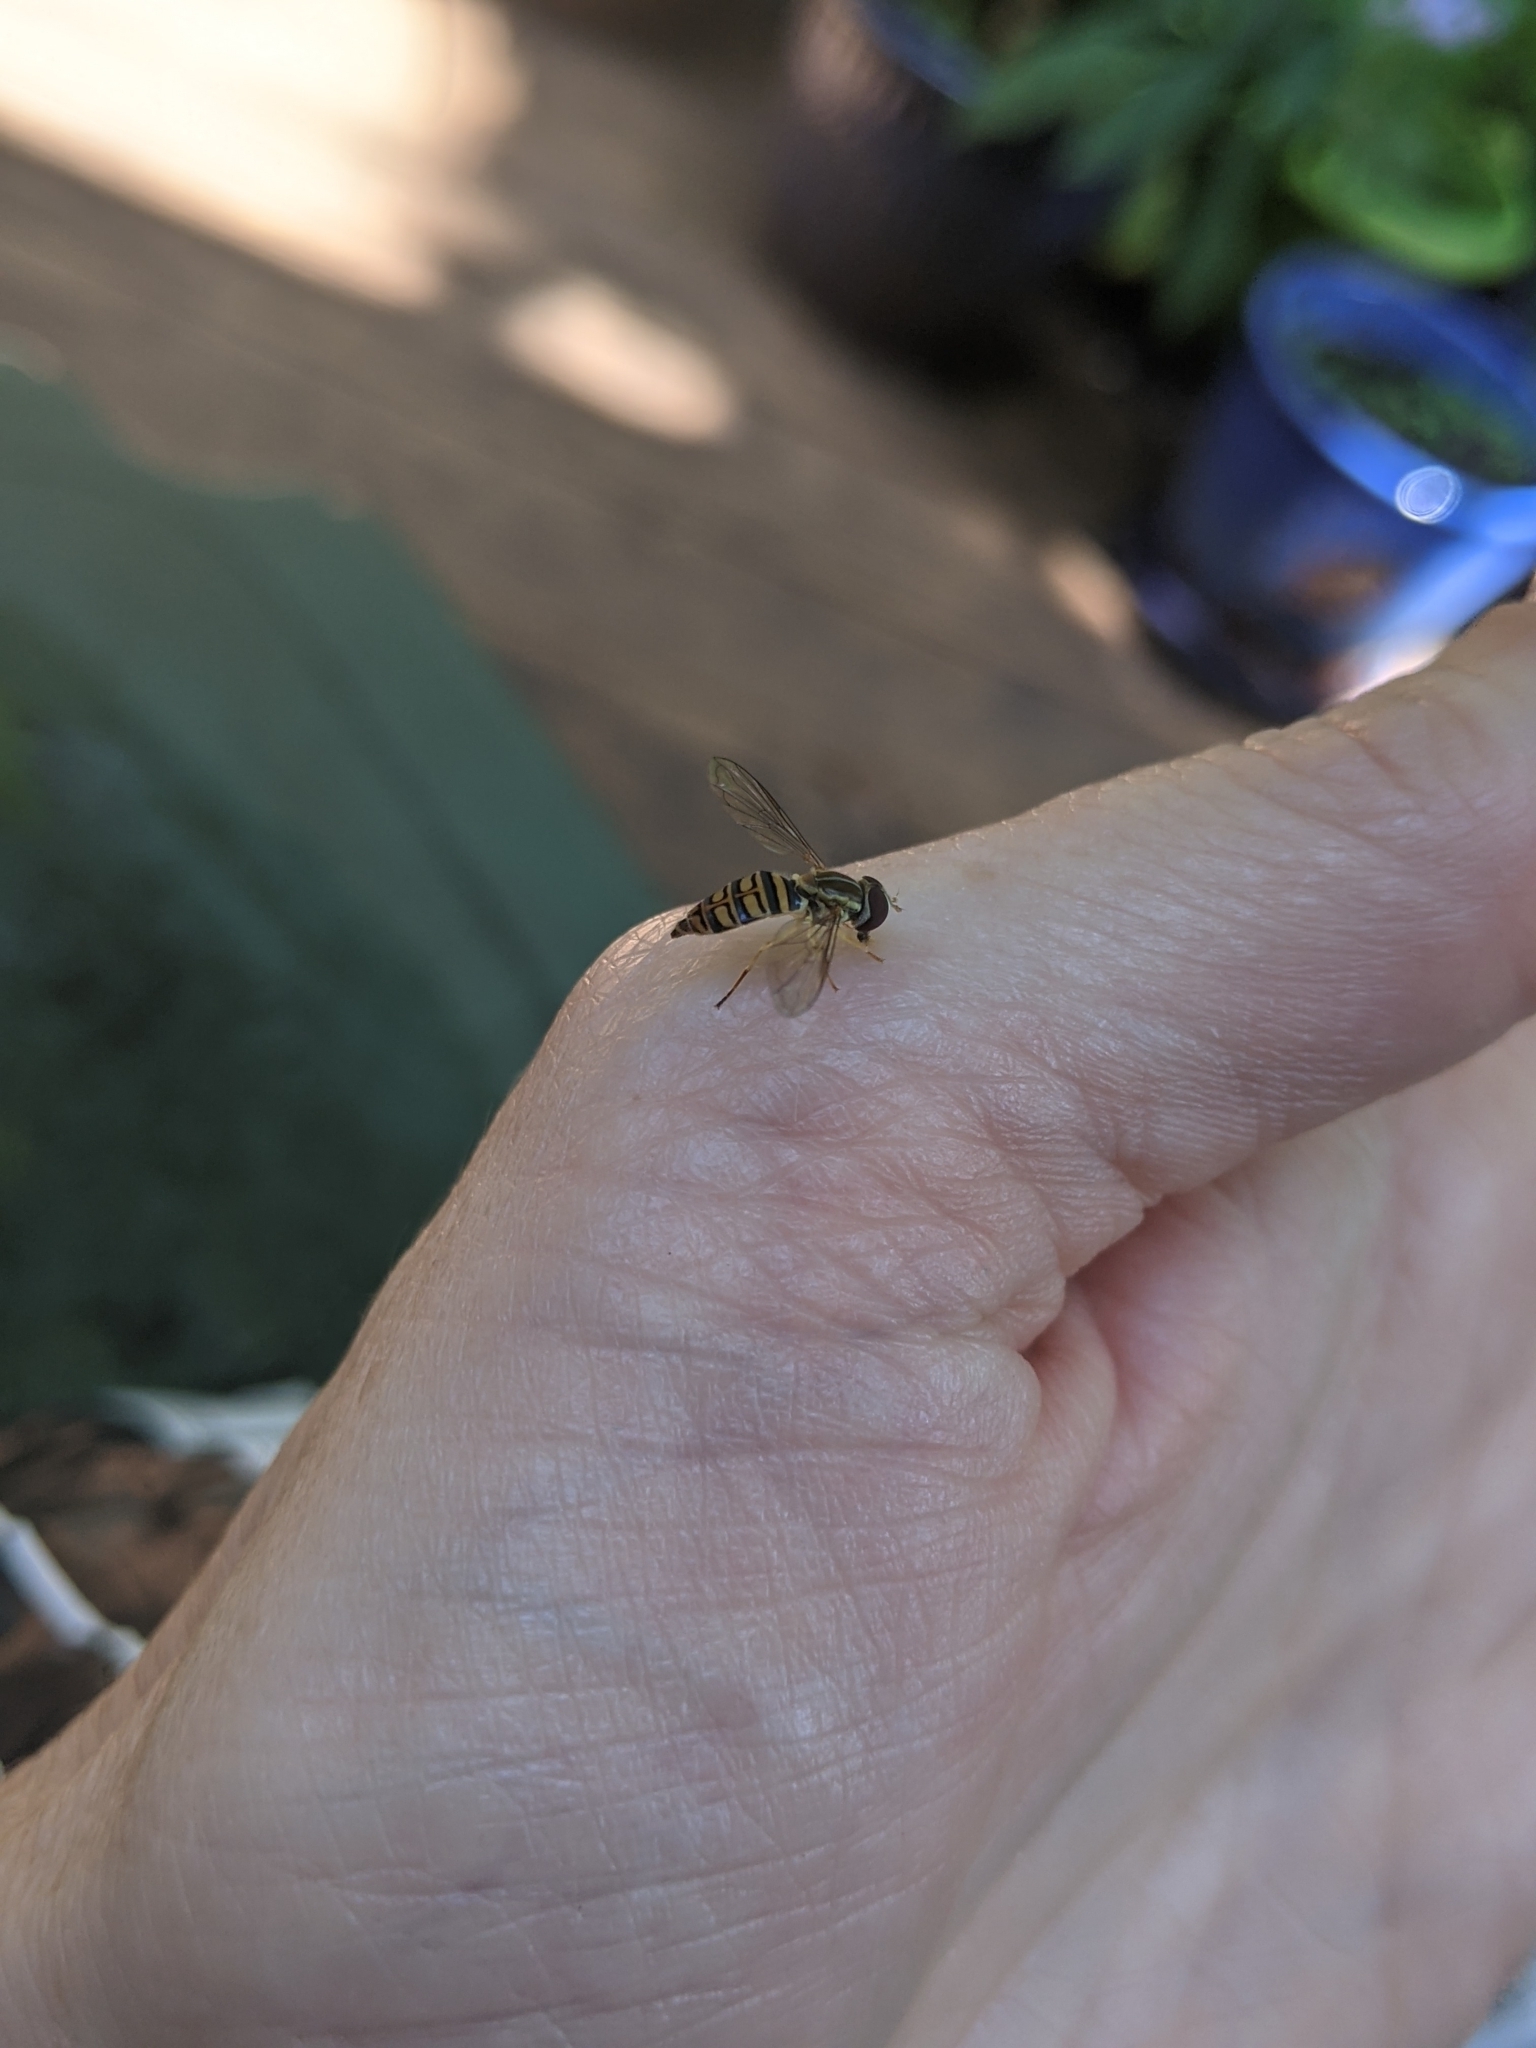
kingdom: Animalia
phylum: Arthropoda
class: Insecta
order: Diptera
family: Syrphidae
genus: Toxomerus
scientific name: Toxomerus politus
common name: Maize calligrapher
